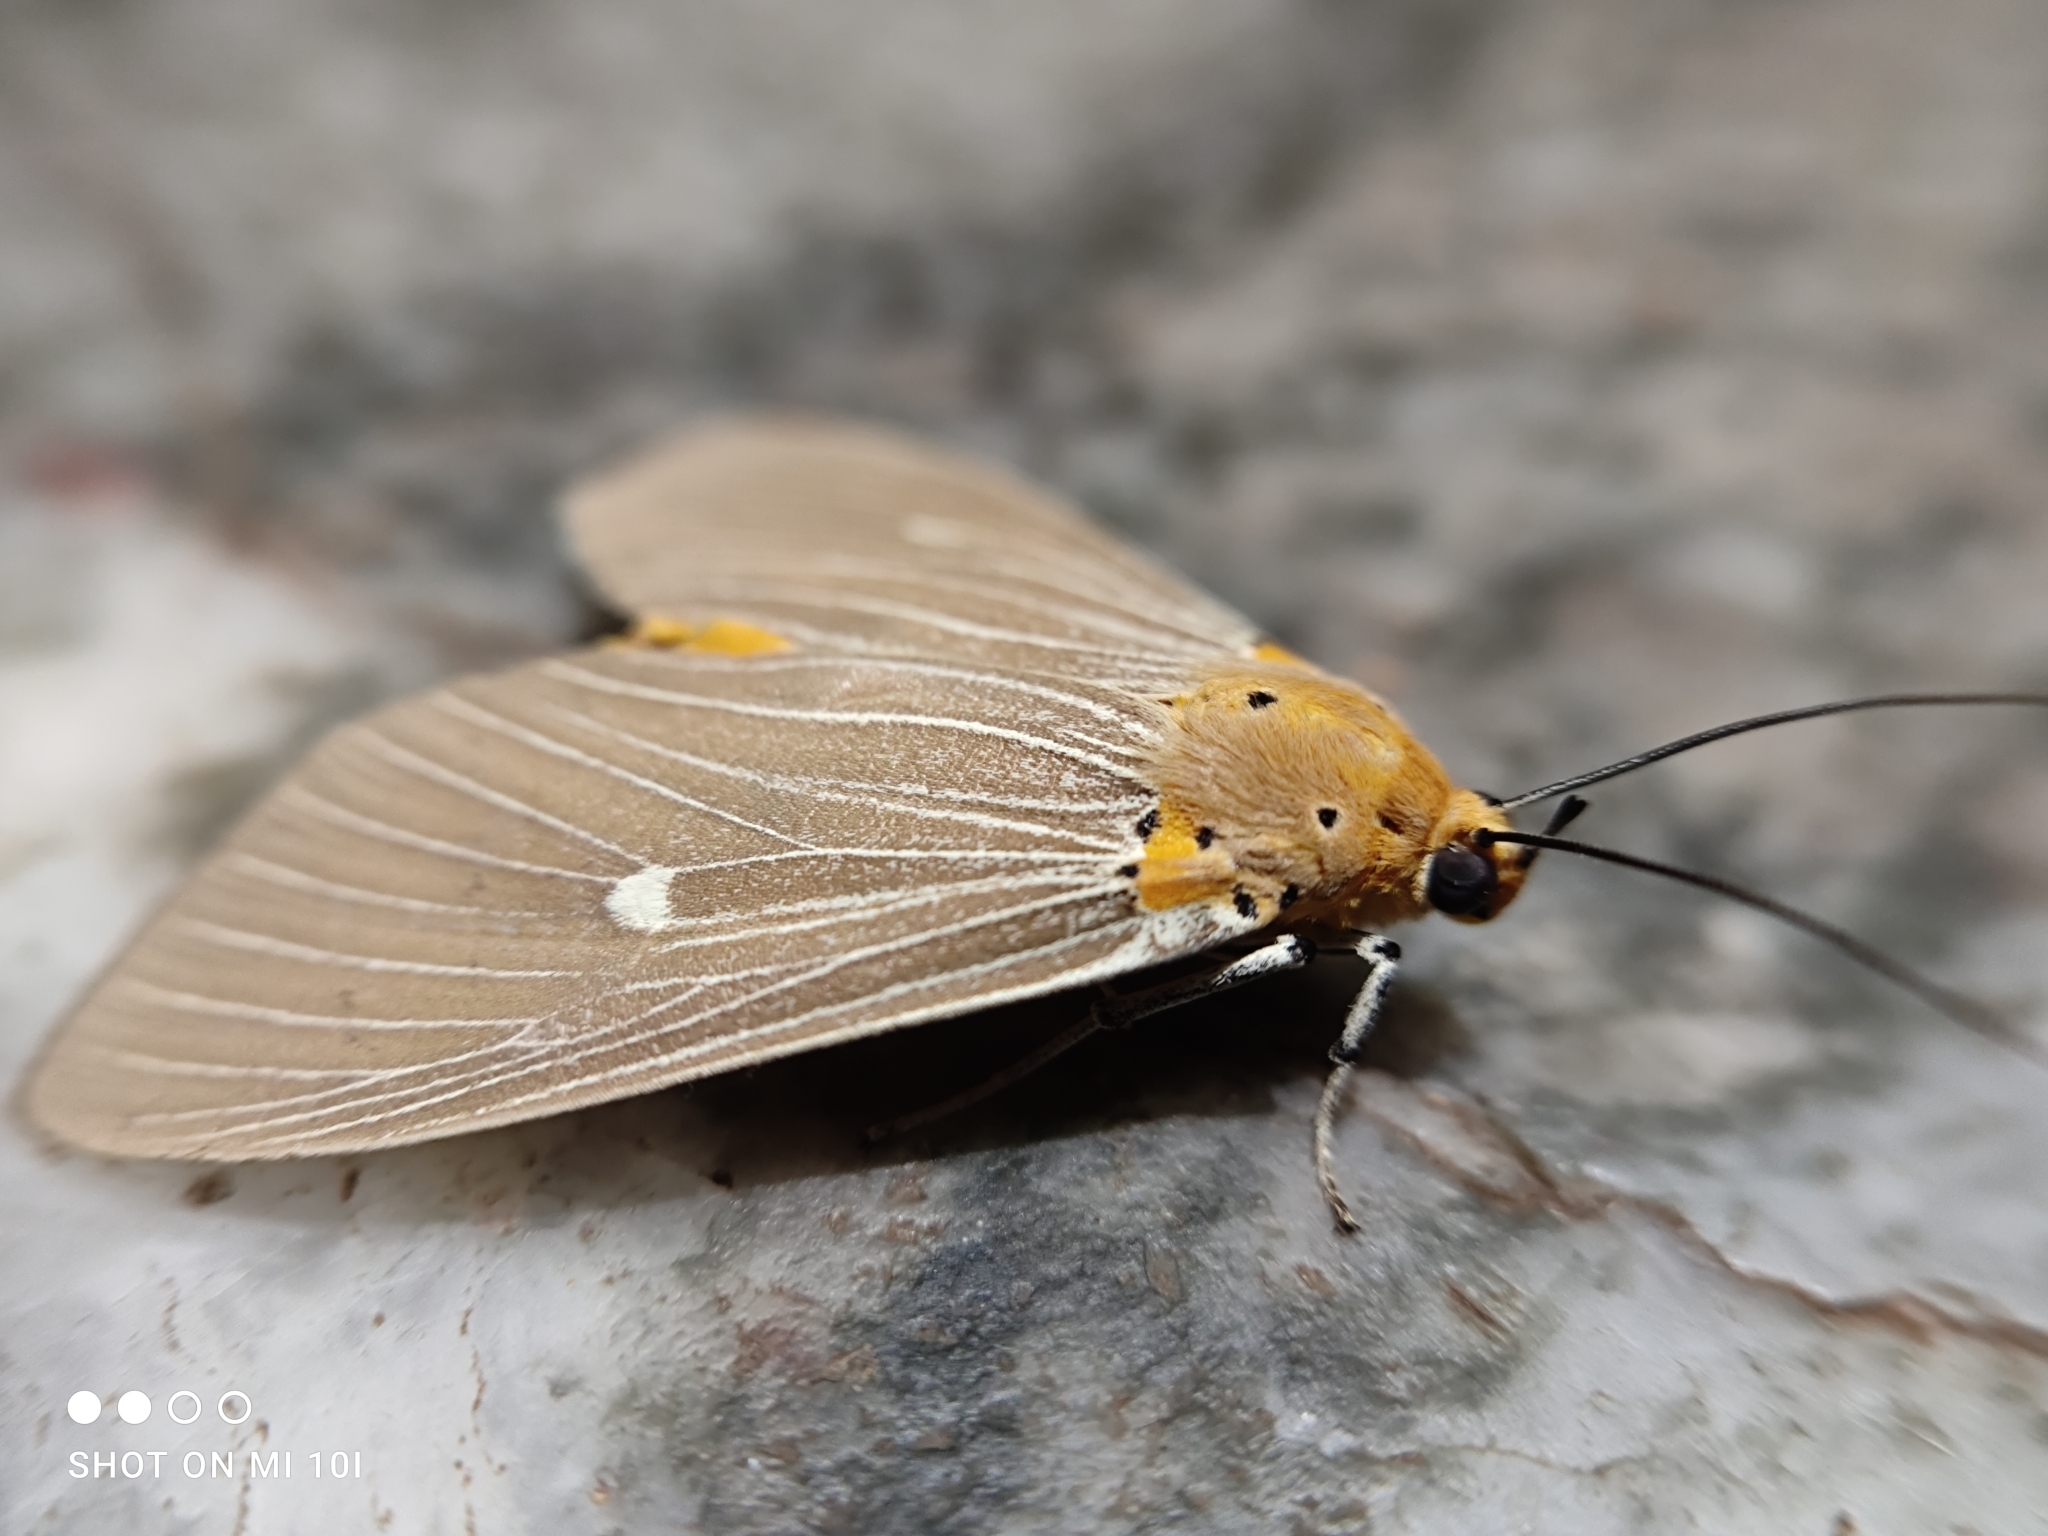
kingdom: Animalia
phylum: Arthropoda
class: Insecta
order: Lepidoptera
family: Erebidae
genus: Asota
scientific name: Asota caricae
